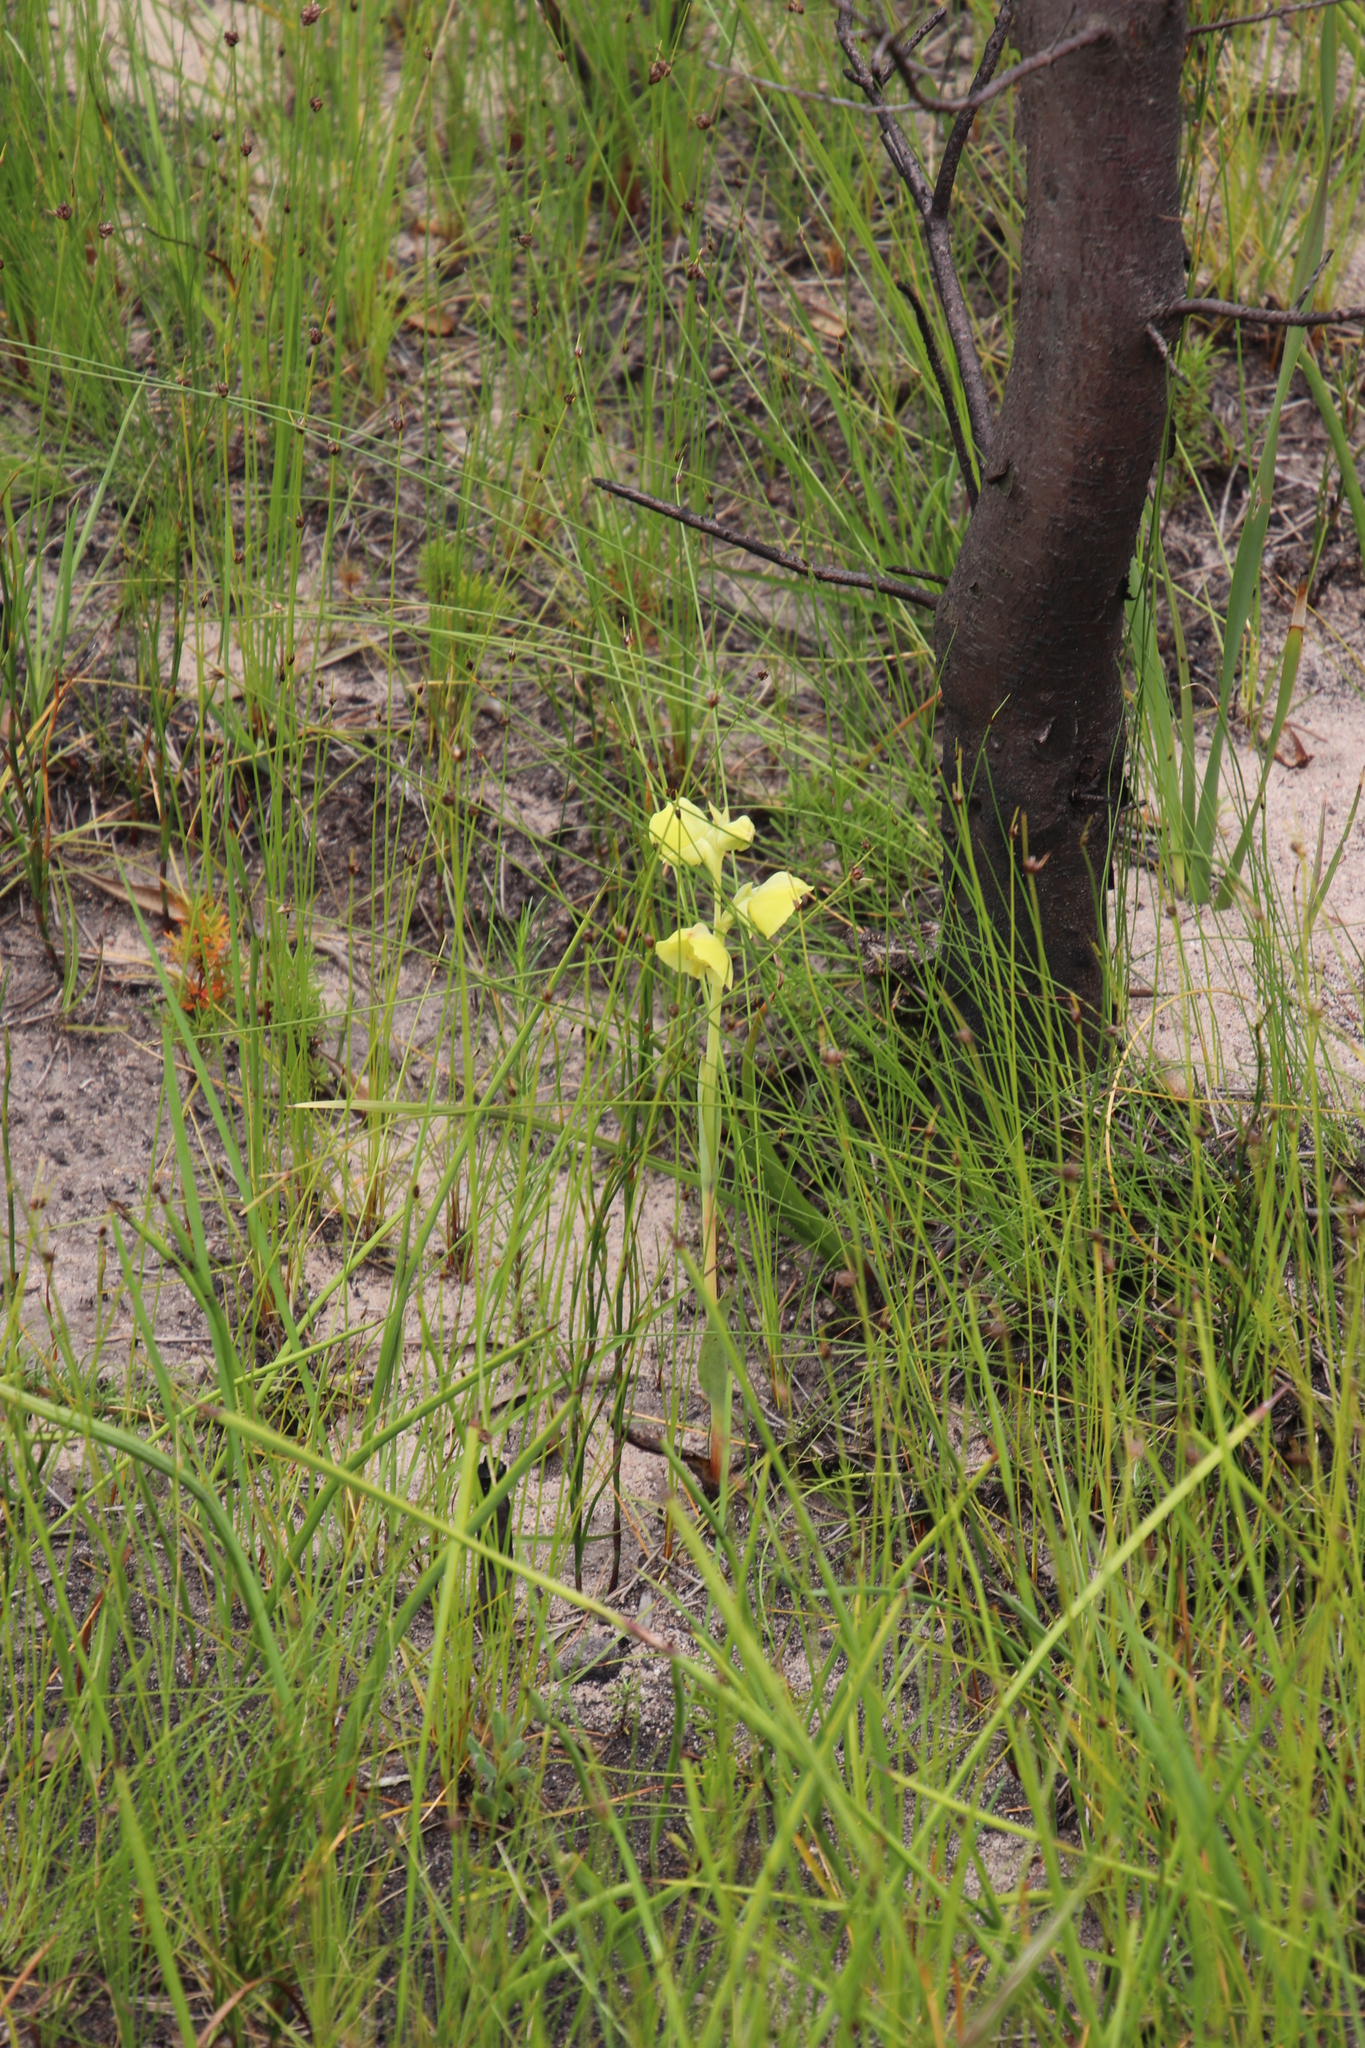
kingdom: Plantae
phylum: Tracheophyta
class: Liliopsida
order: Asparagales
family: Orchidaceae
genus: Pterygodium
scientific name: Pterygodium catholicum
